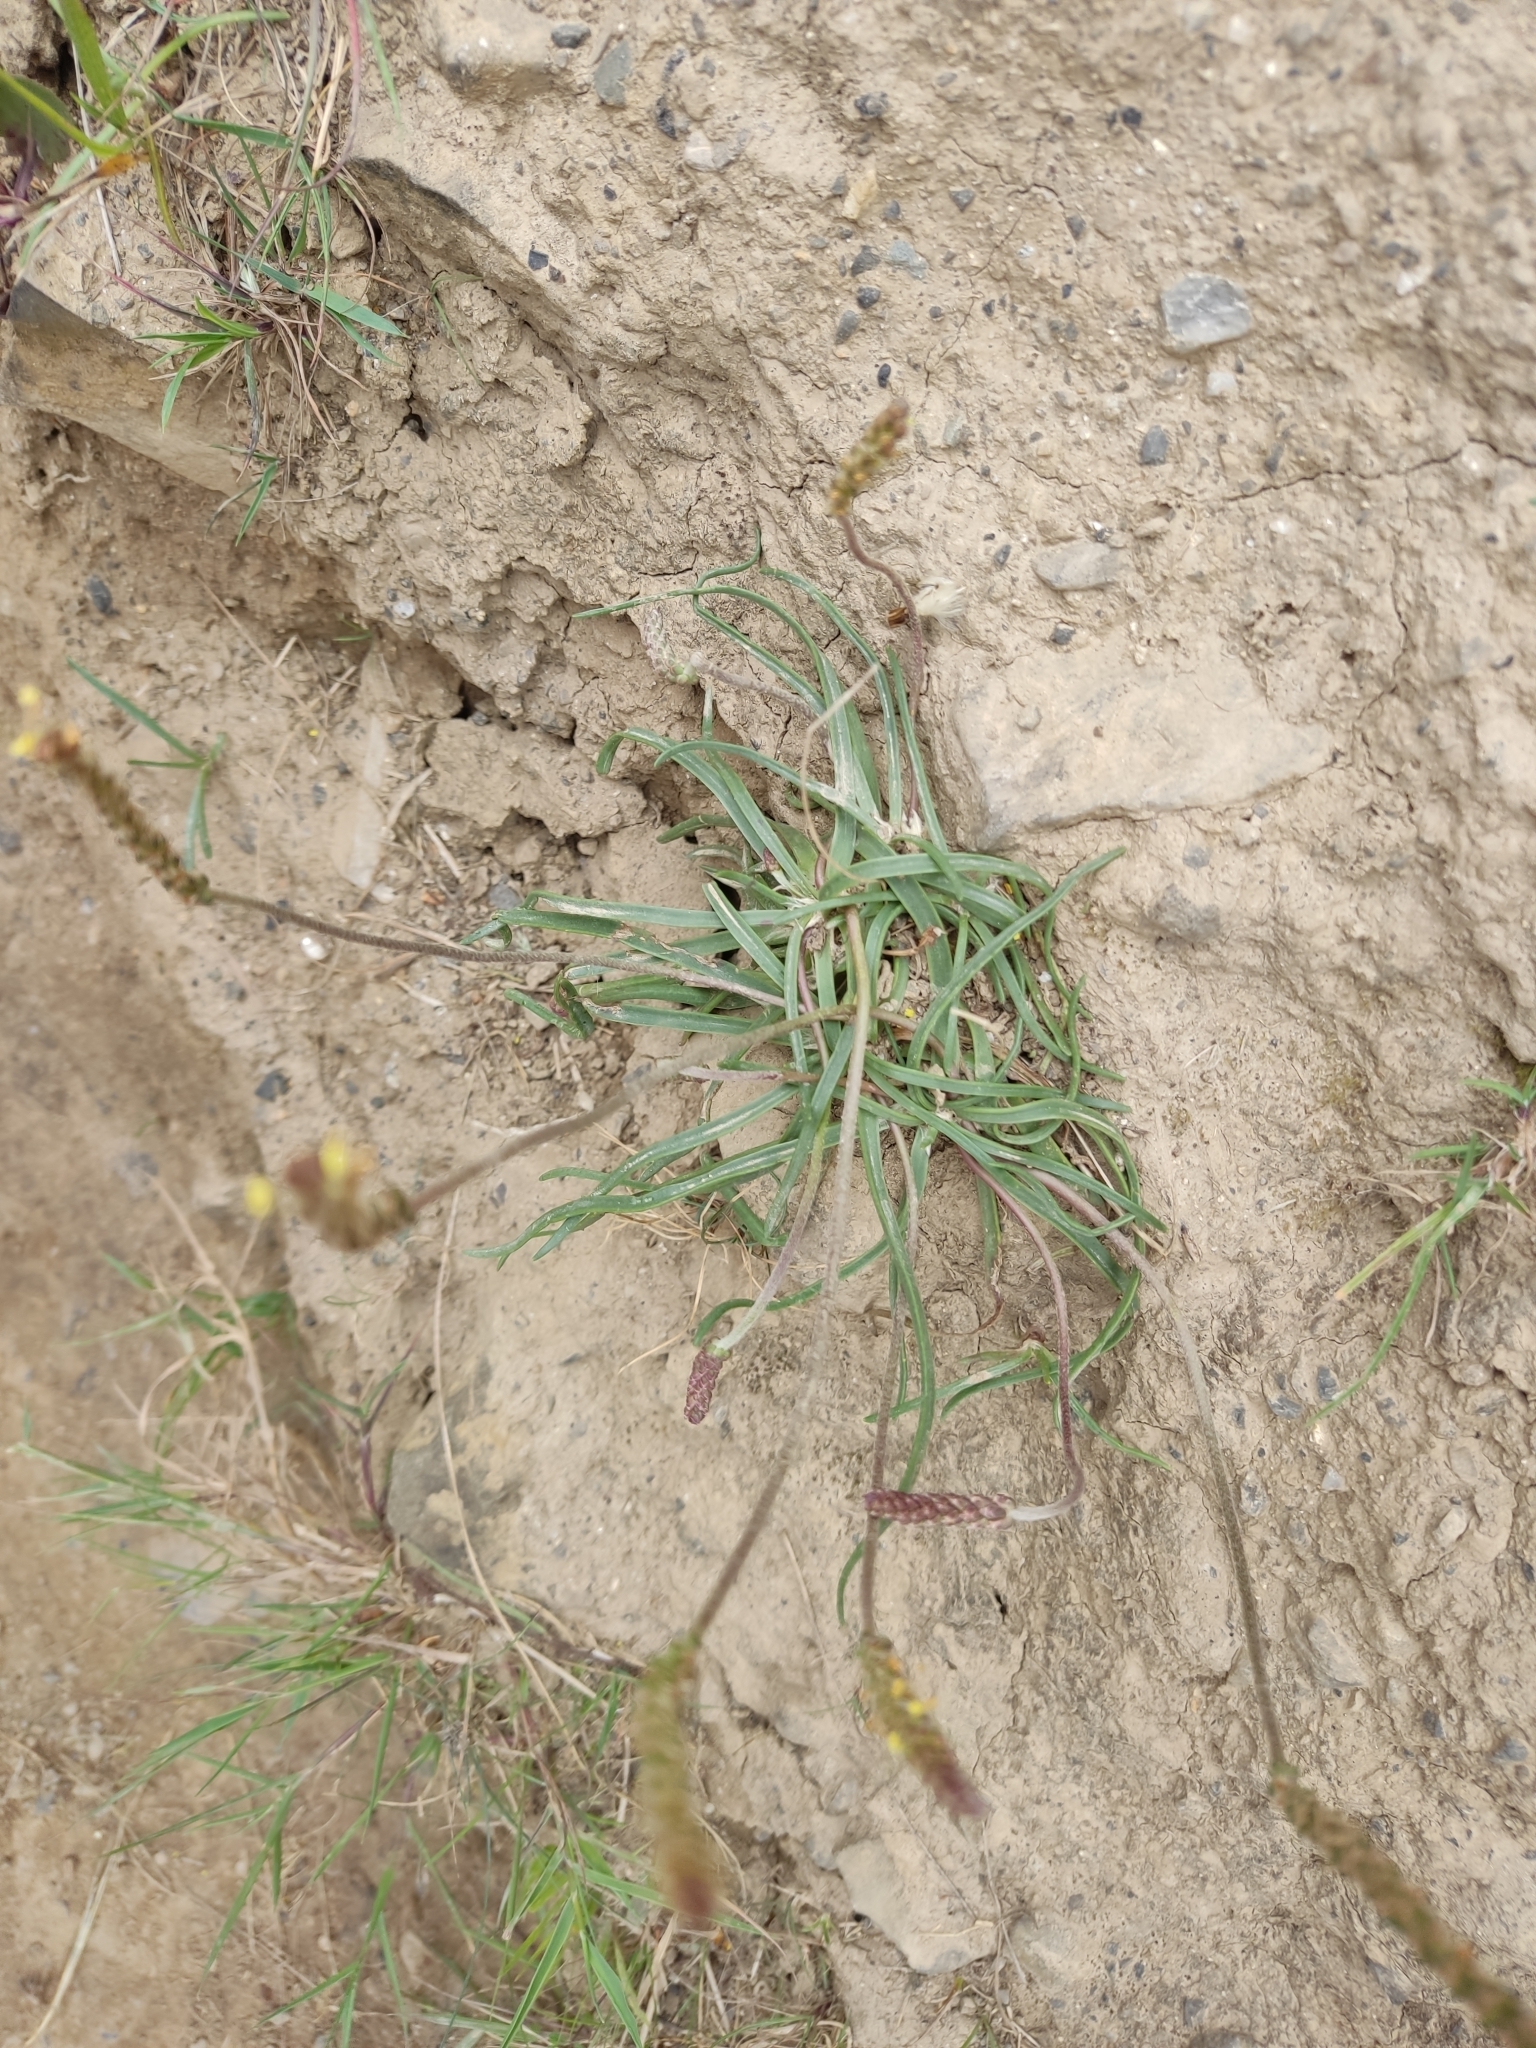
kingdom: Plantae
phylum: Tracheophyta
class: Magnoliopsida
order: Lamiales
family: Plantaginaceae
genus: Plantago
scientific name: Plantago maritima
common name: Sea plantain
